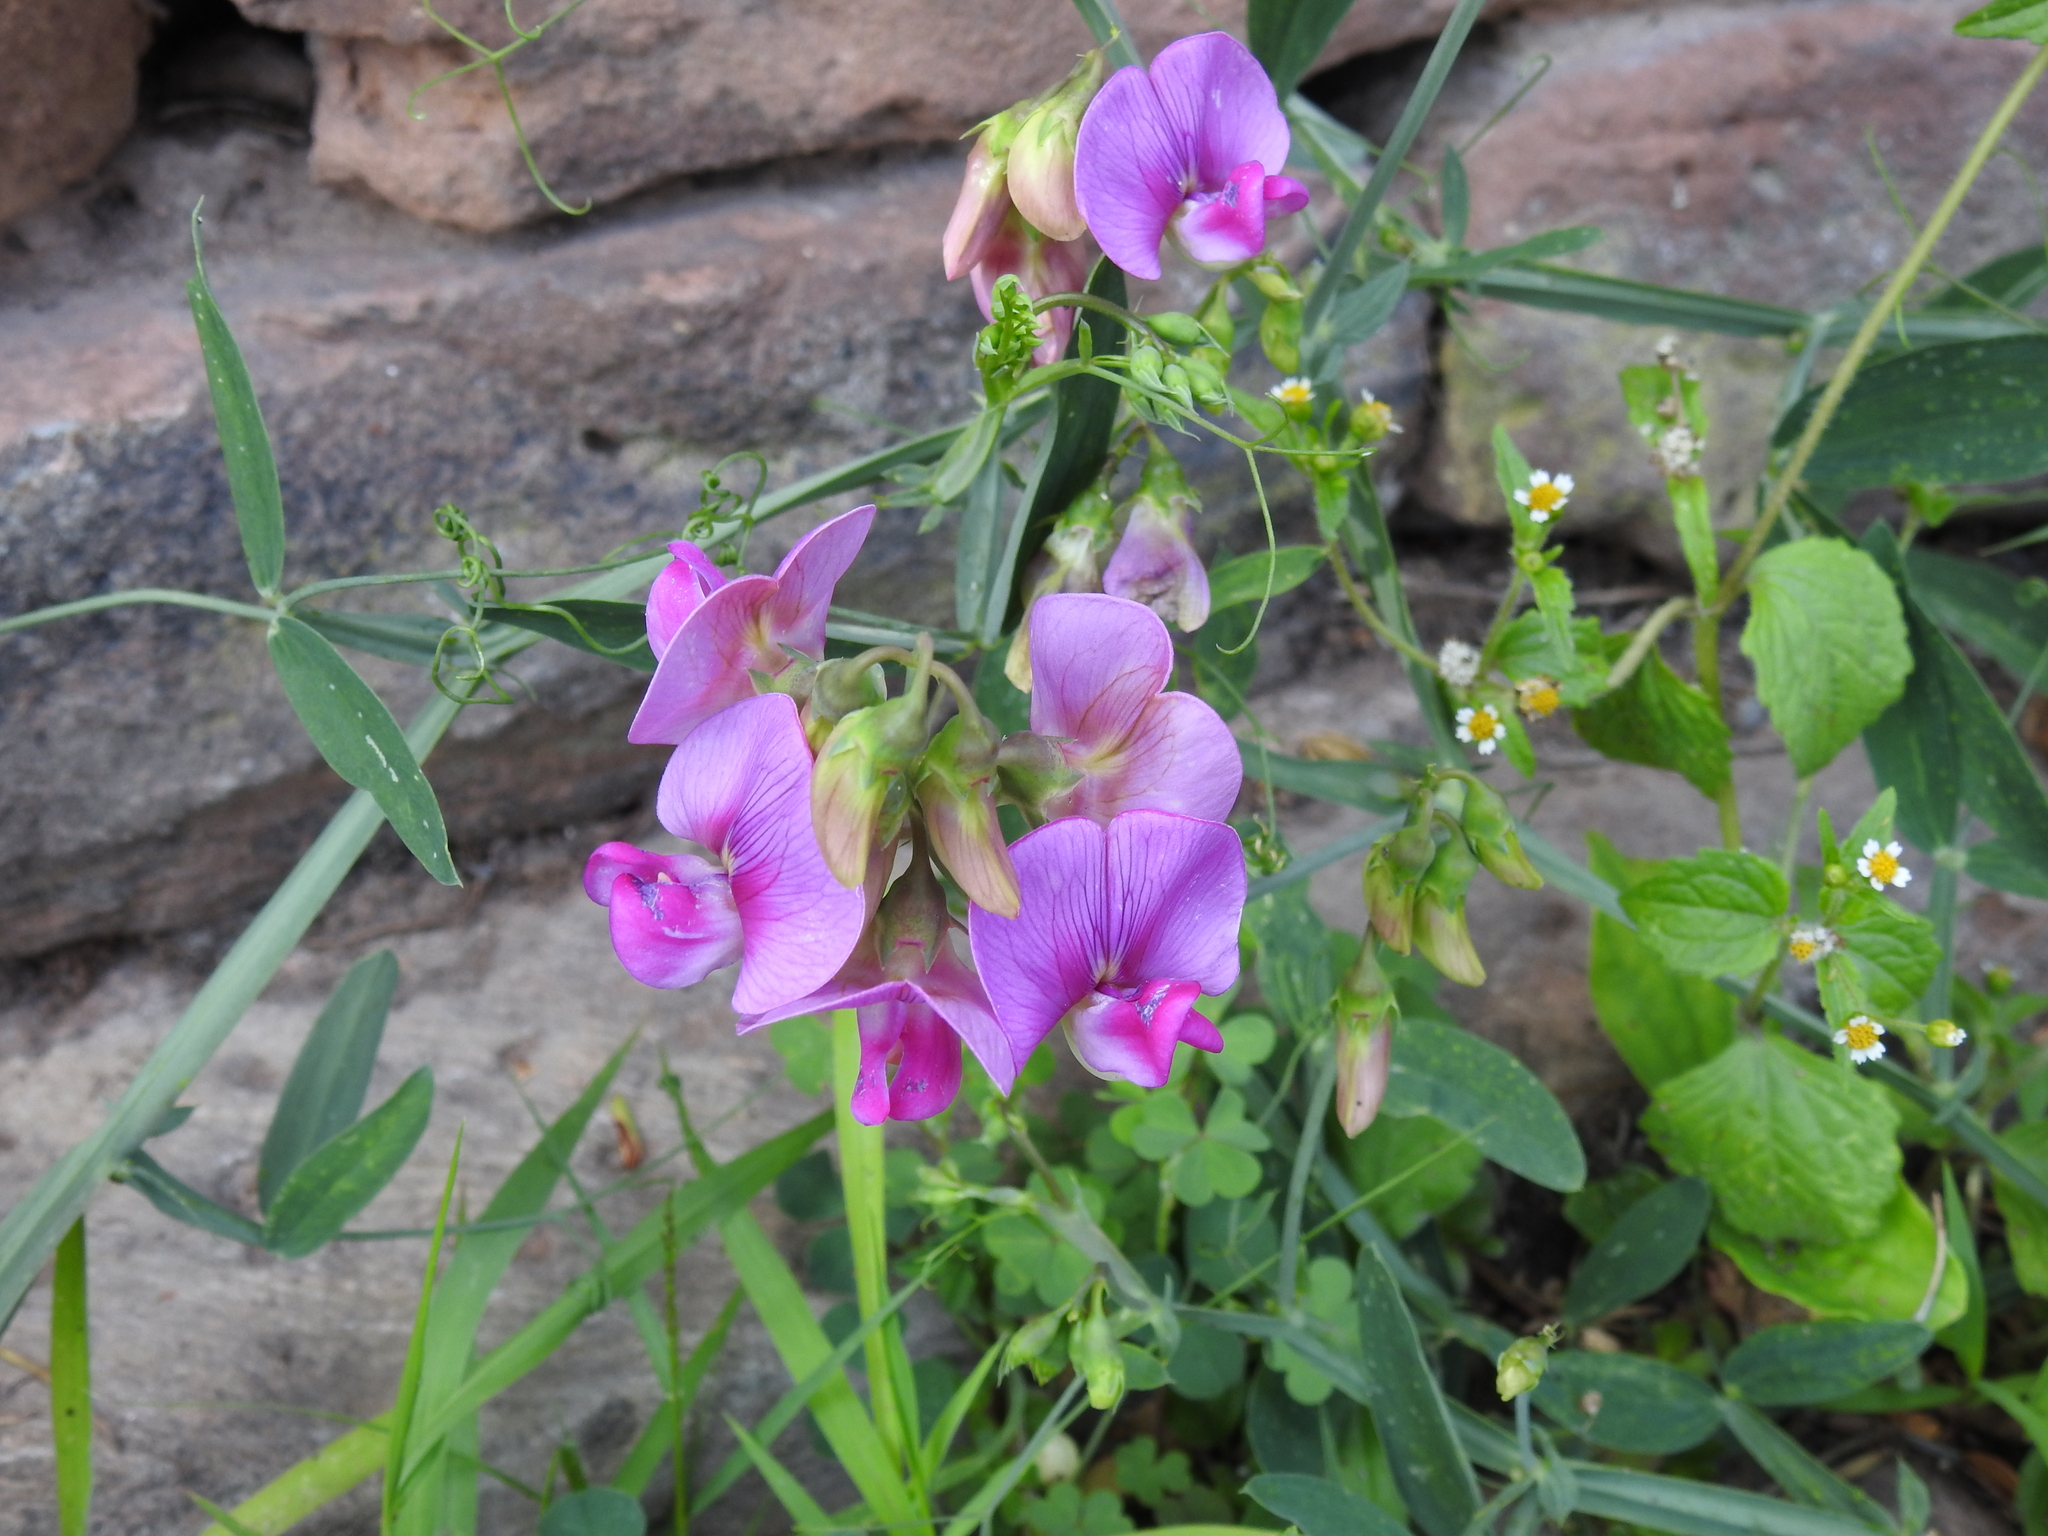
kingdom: Plantae
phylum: Tracheophyta
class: Magnoliopsida
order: Fabales
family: Fabaceae
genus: Lathyrus
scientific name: Lathyrus latifolius
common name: Perennial pea
